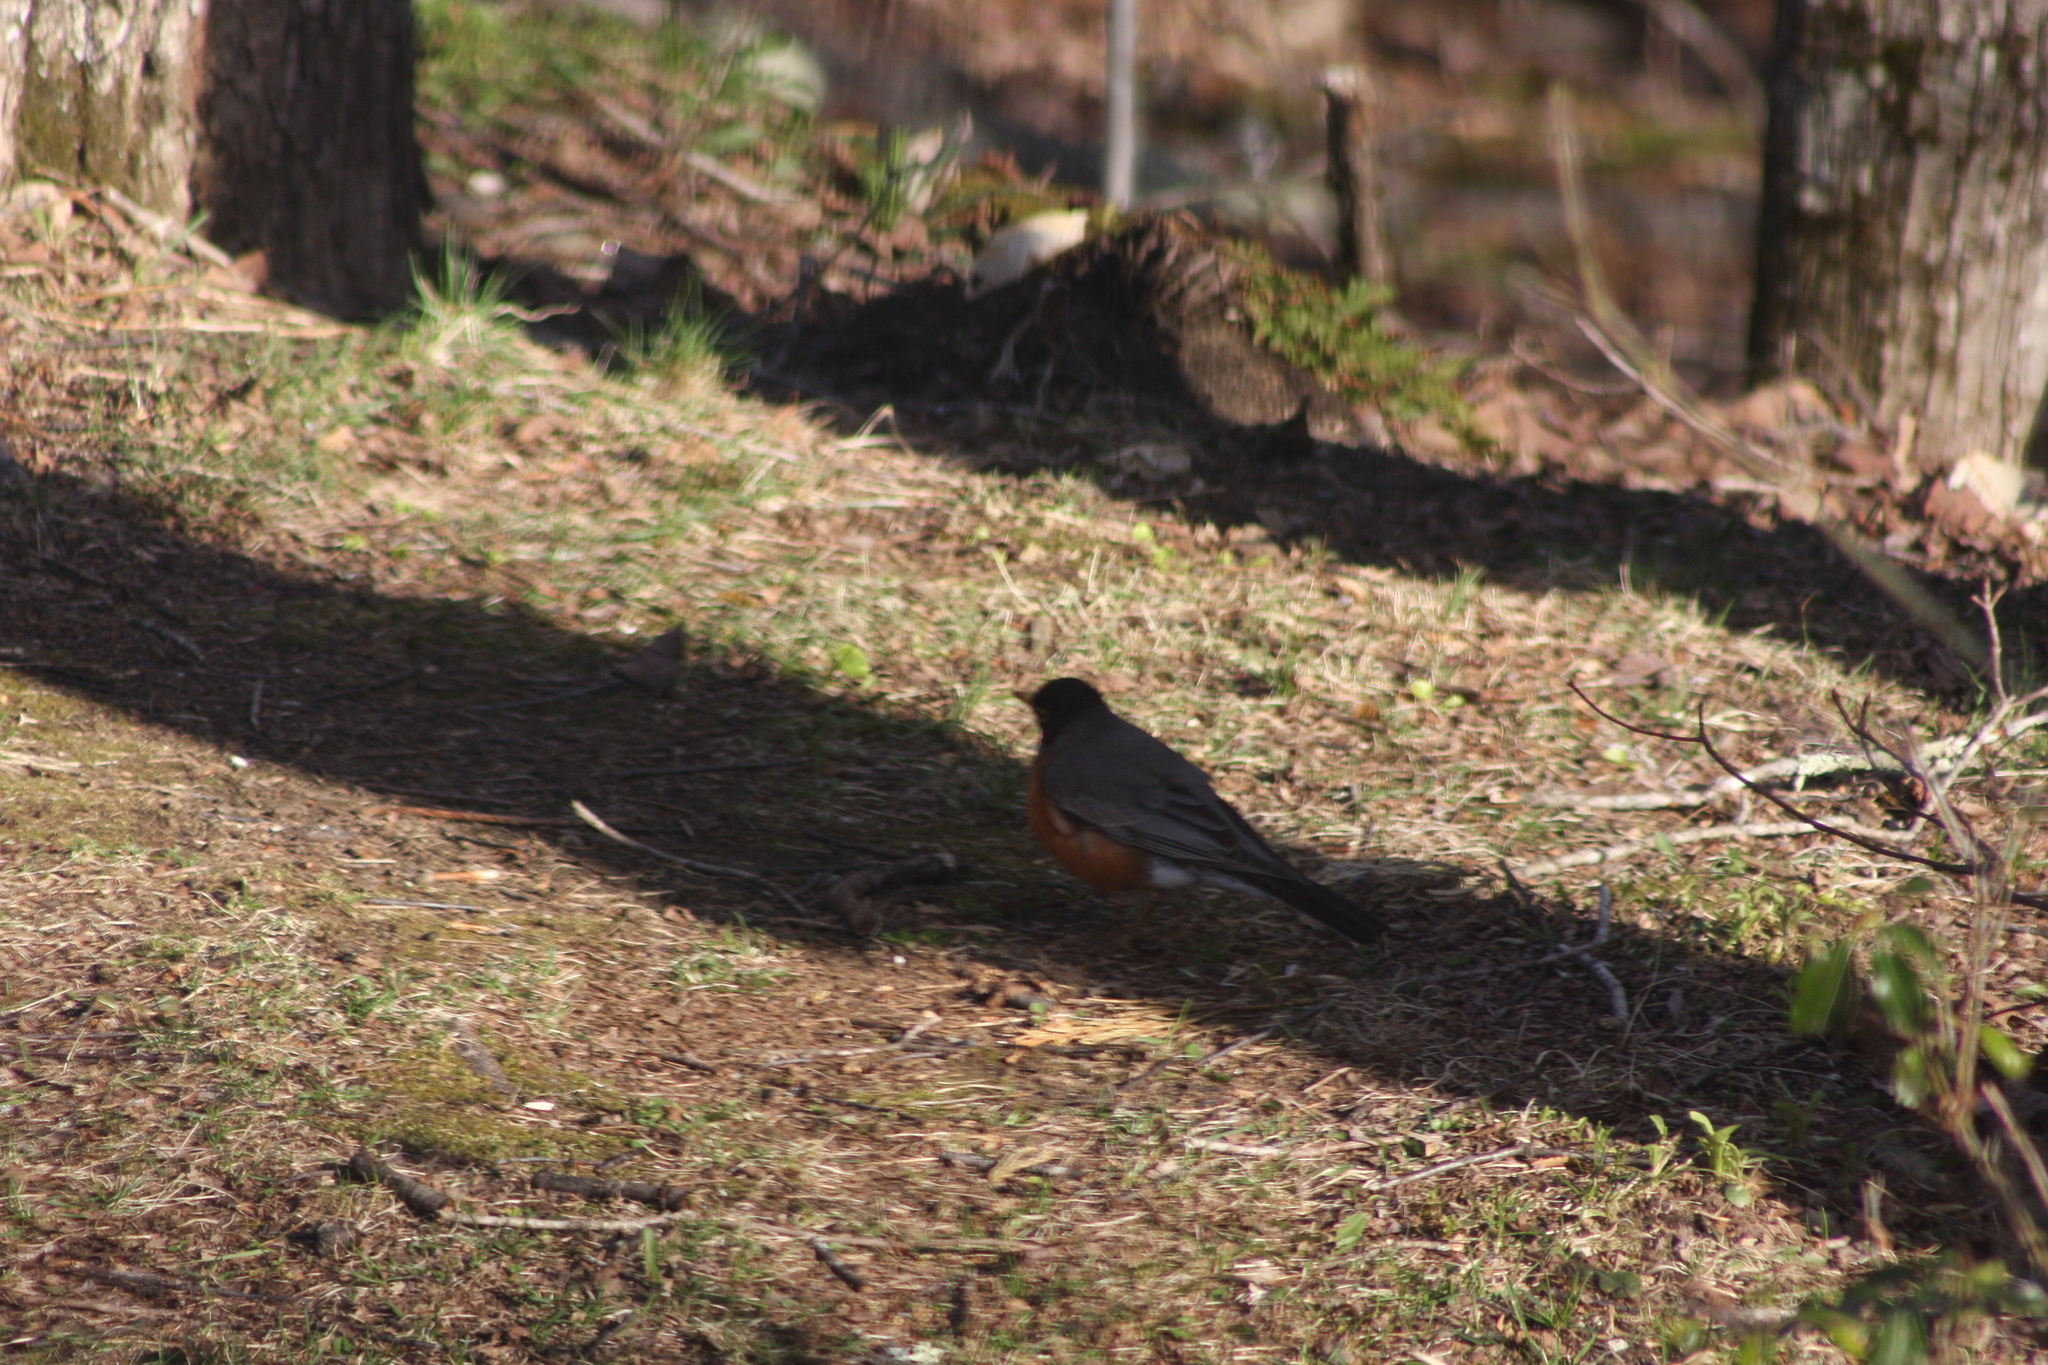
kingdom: Animalia
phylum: Chordata
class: Aves
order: Passeriformes
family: Turdidae
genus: Turdus
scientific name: Turdus migratorius
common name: American robin
